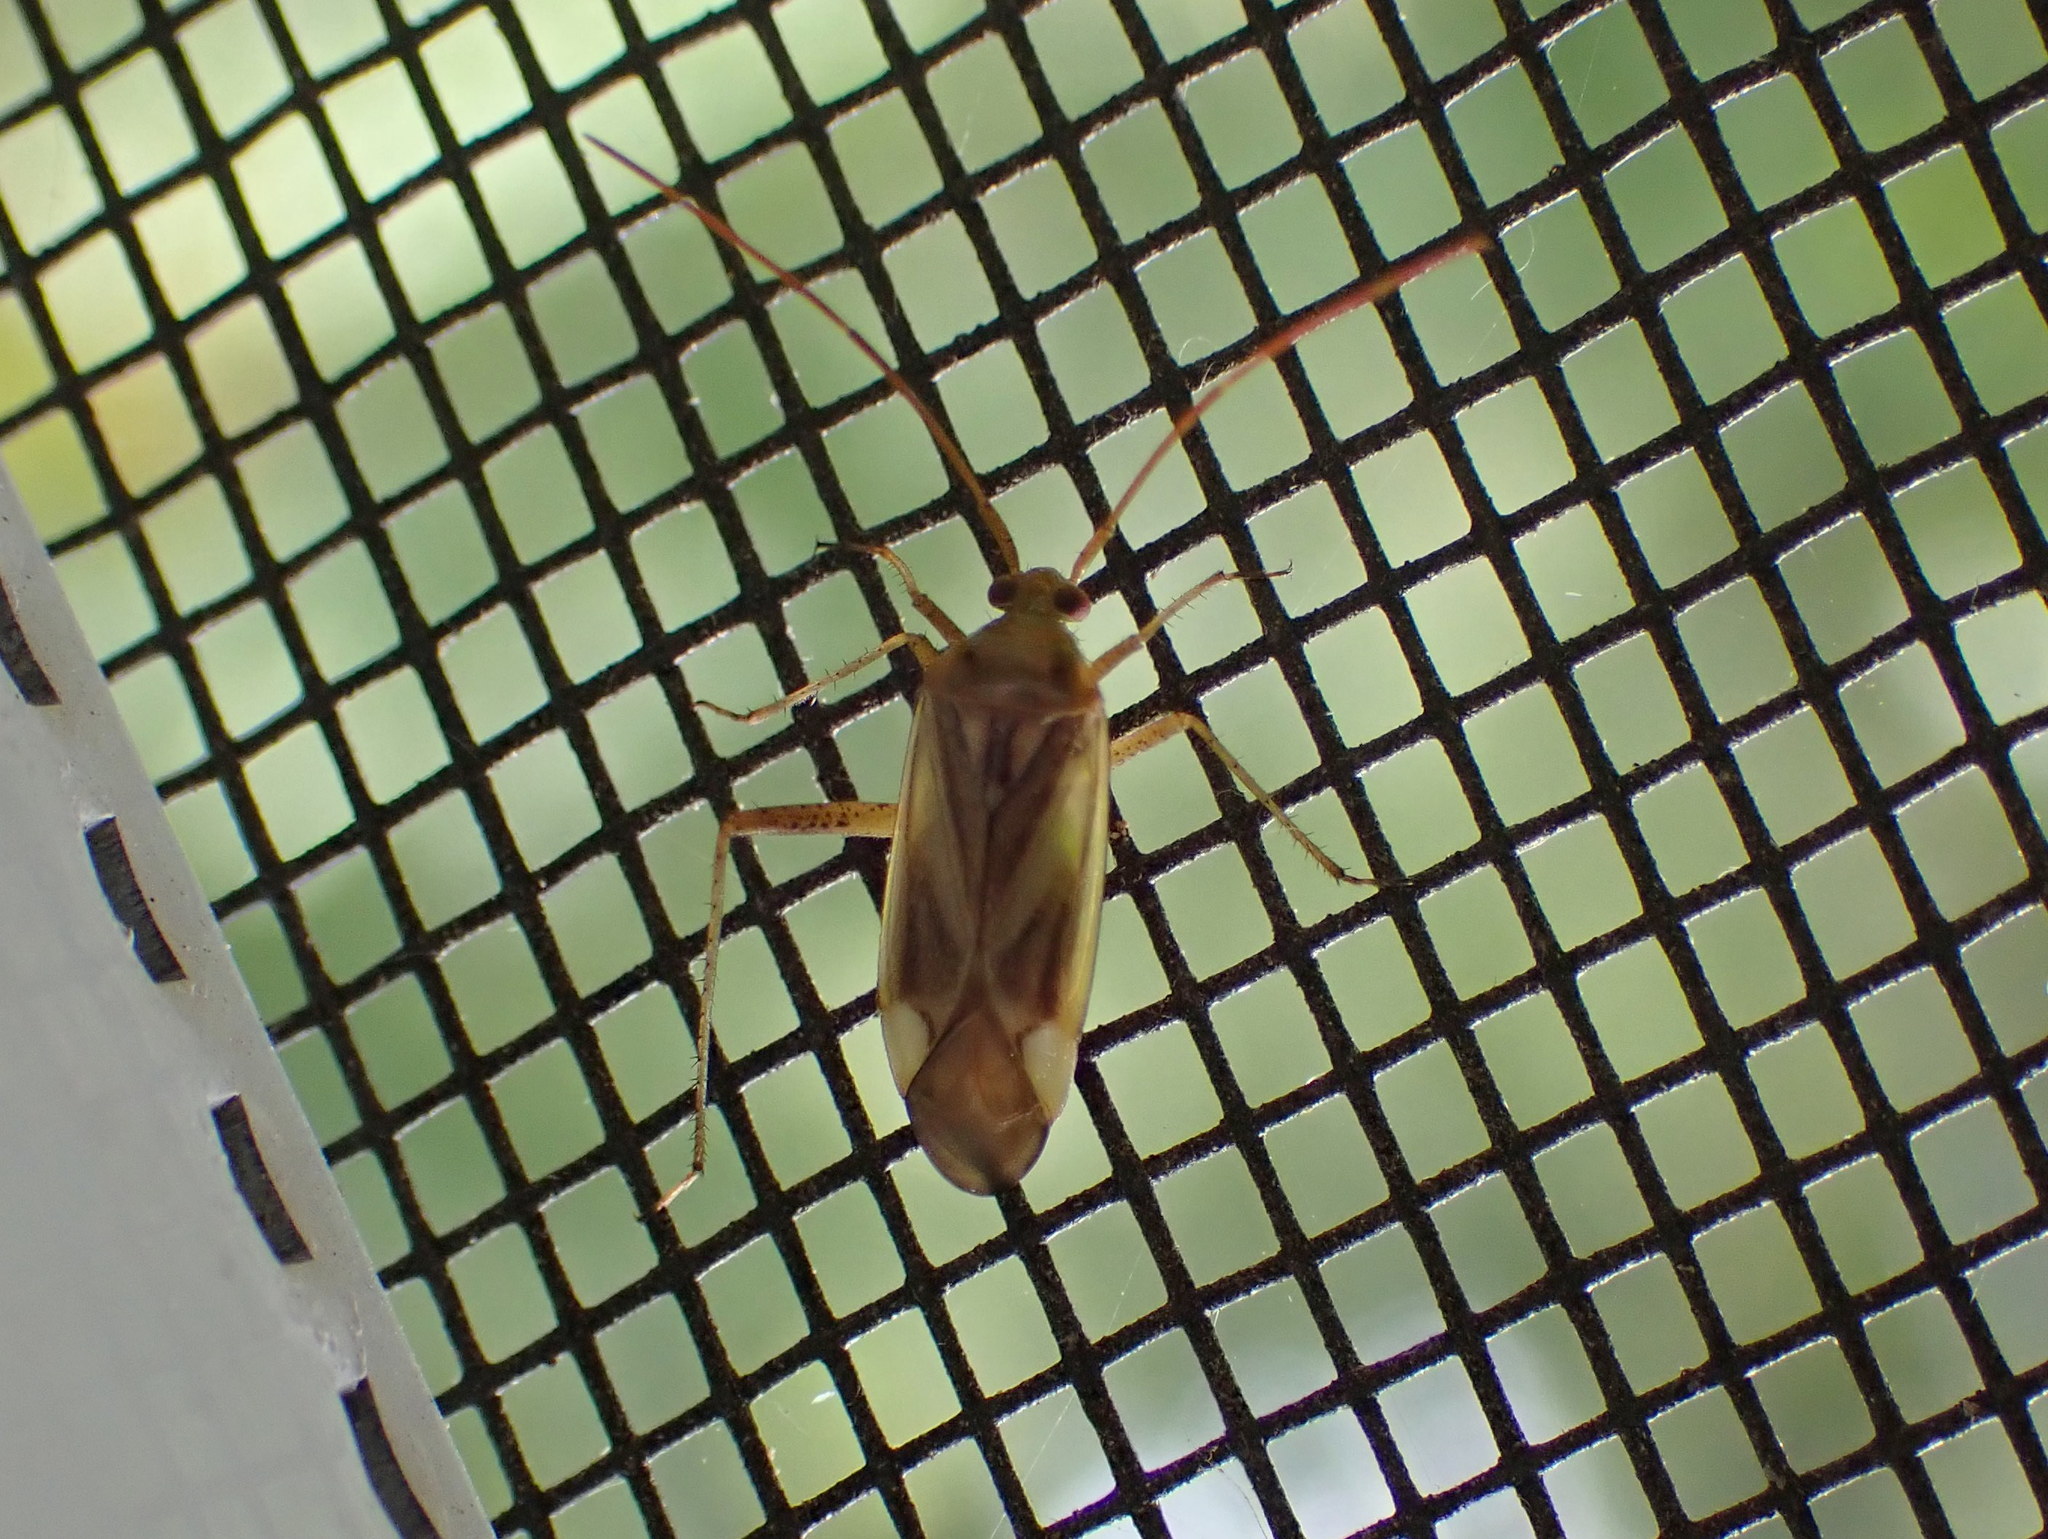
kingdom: Animalia
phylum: Arthropoda
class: Insecta
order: Hemiptera
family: Miridae
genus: Adelphocoris
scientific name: Adelphocoris lineolatus
